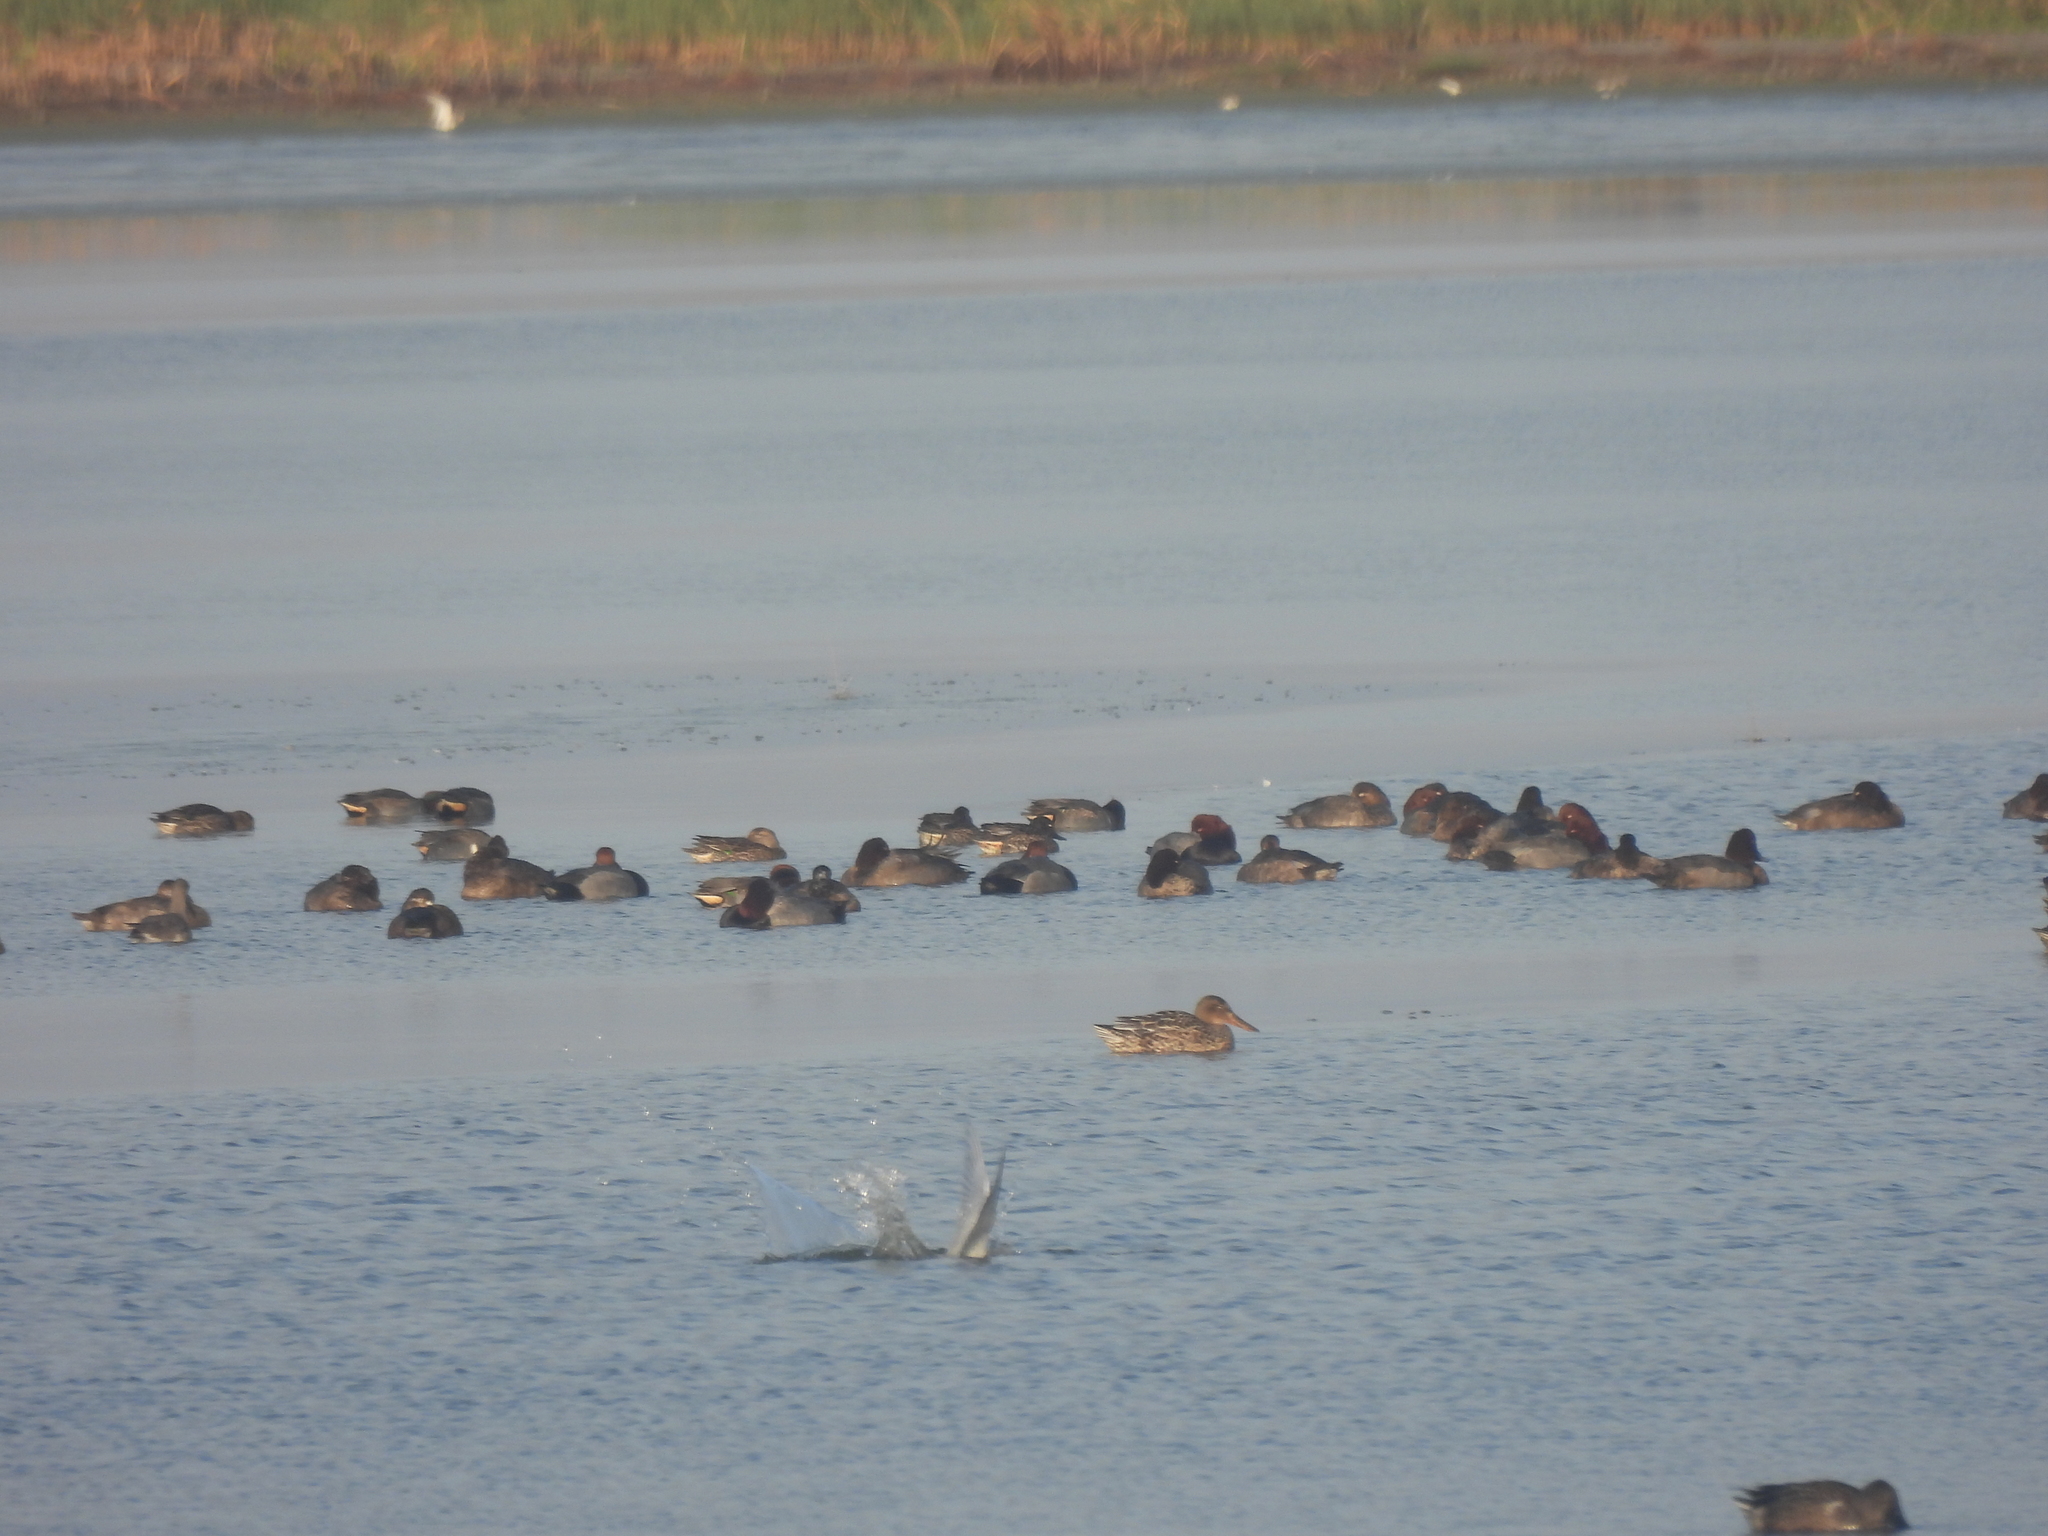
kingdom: Animalia
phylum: Chordata
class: Aves
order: Anseriformes
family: Anatidae
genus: Aythya
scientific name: Aythya americana
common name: Redhead
